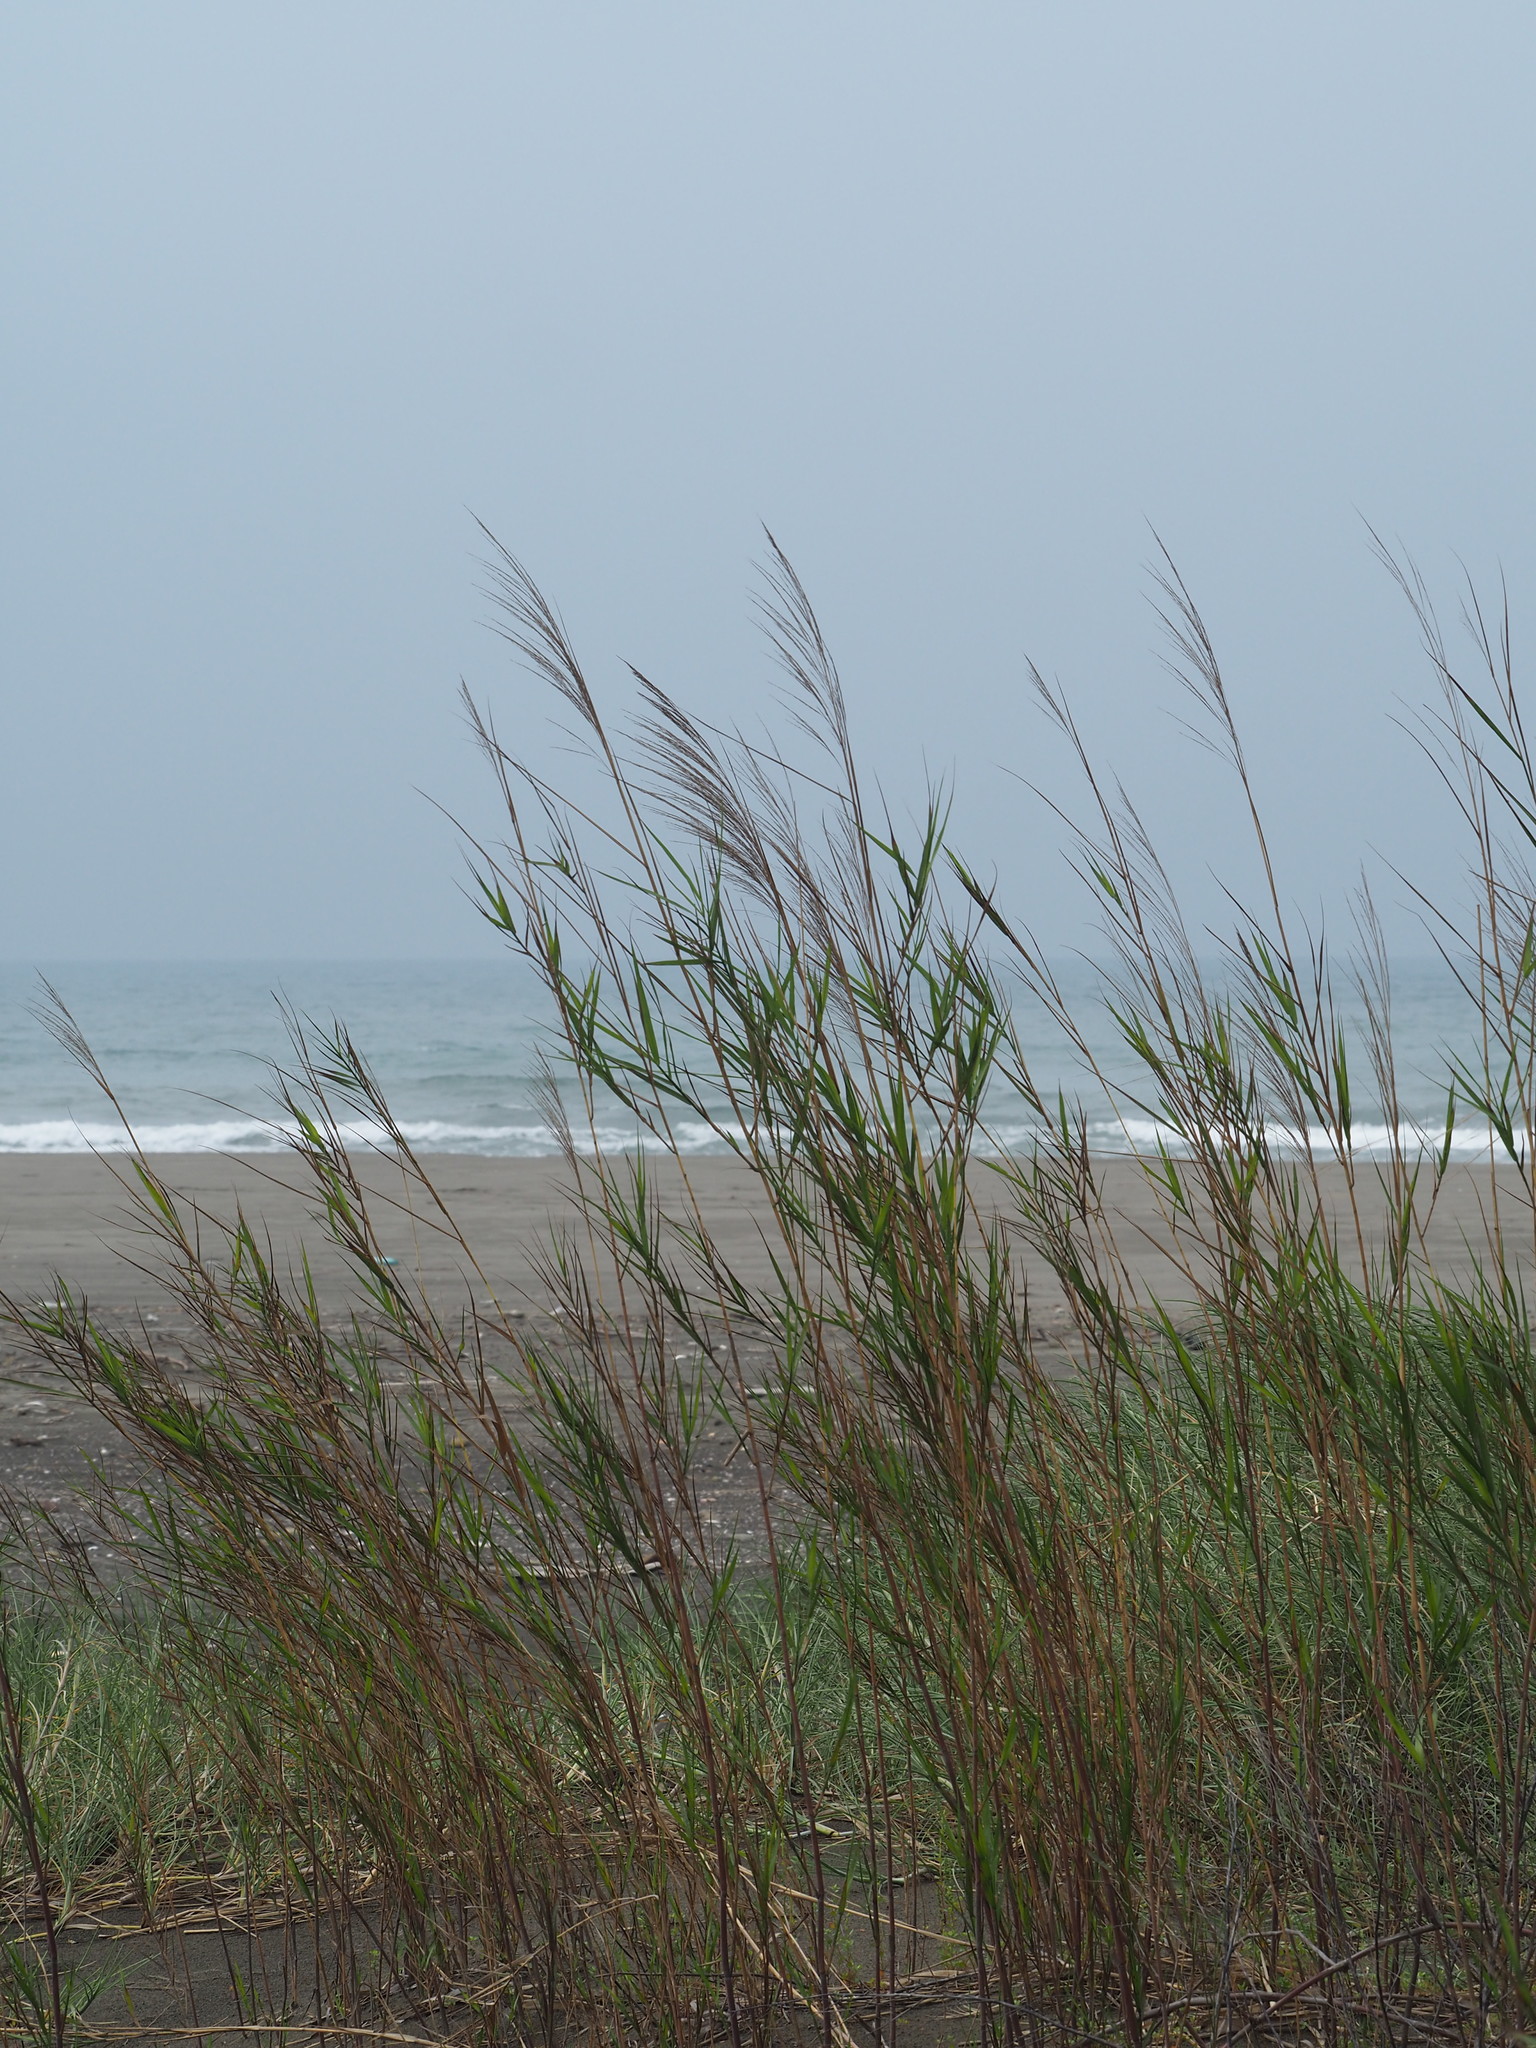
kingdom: Plantae
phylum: Tracheophyta
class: Liliopsida
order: Poales
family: Poaceae
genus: Phragmites
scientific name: Phragmites karka
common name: Tropical reed
